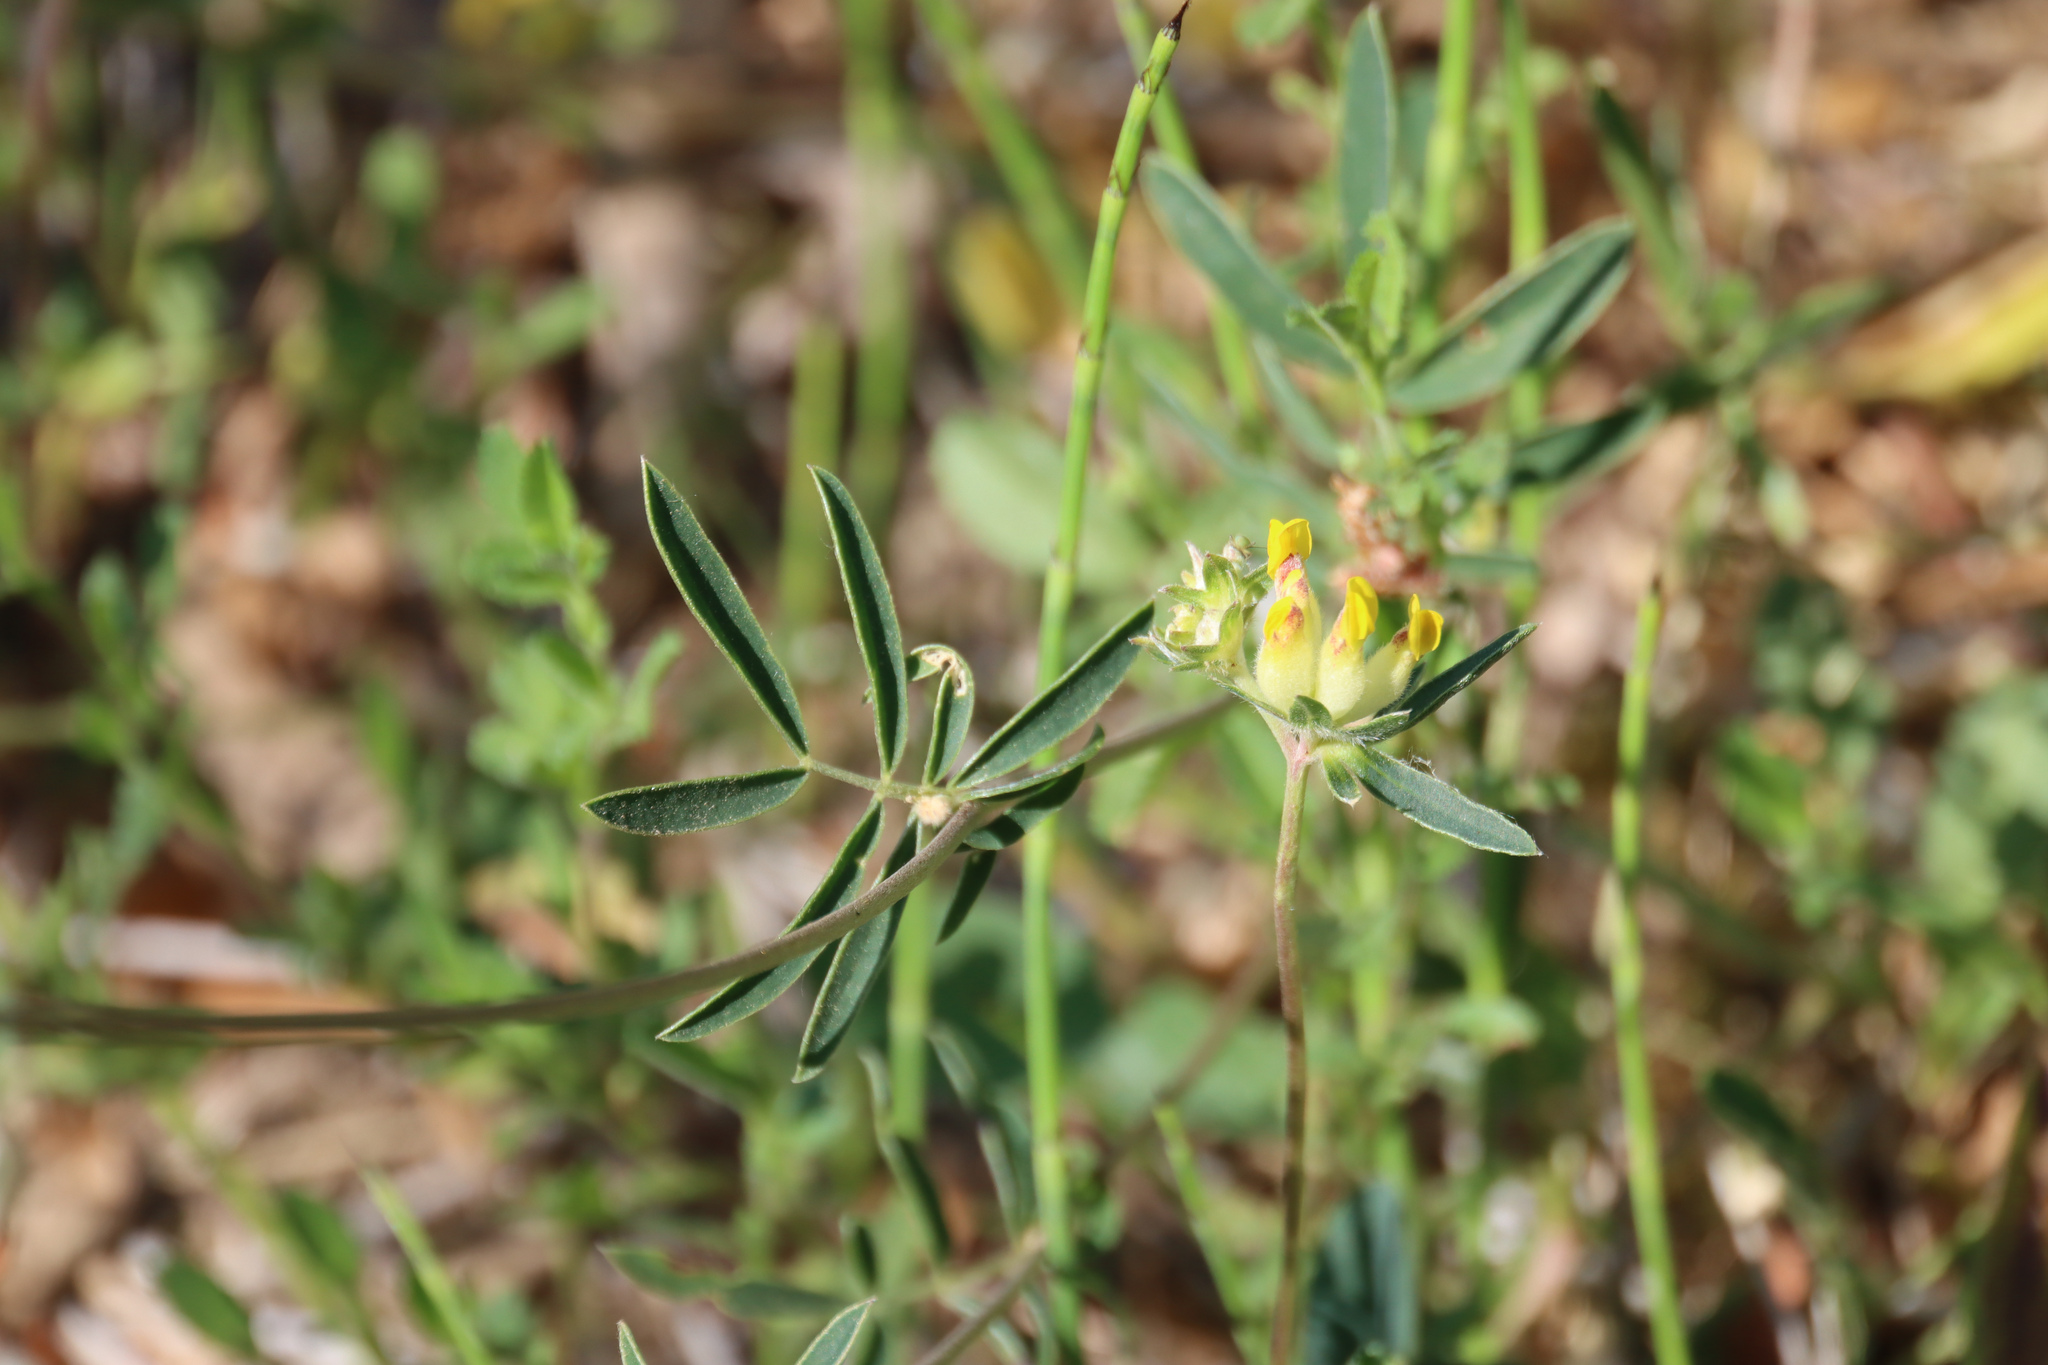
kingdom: Plantae
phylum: Tracheophyta
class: Magnoliopsida
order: Fabales
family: Fabaceae
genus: Anthyllis
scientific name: Anthyllis vulneraria
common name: Kidney vetch
